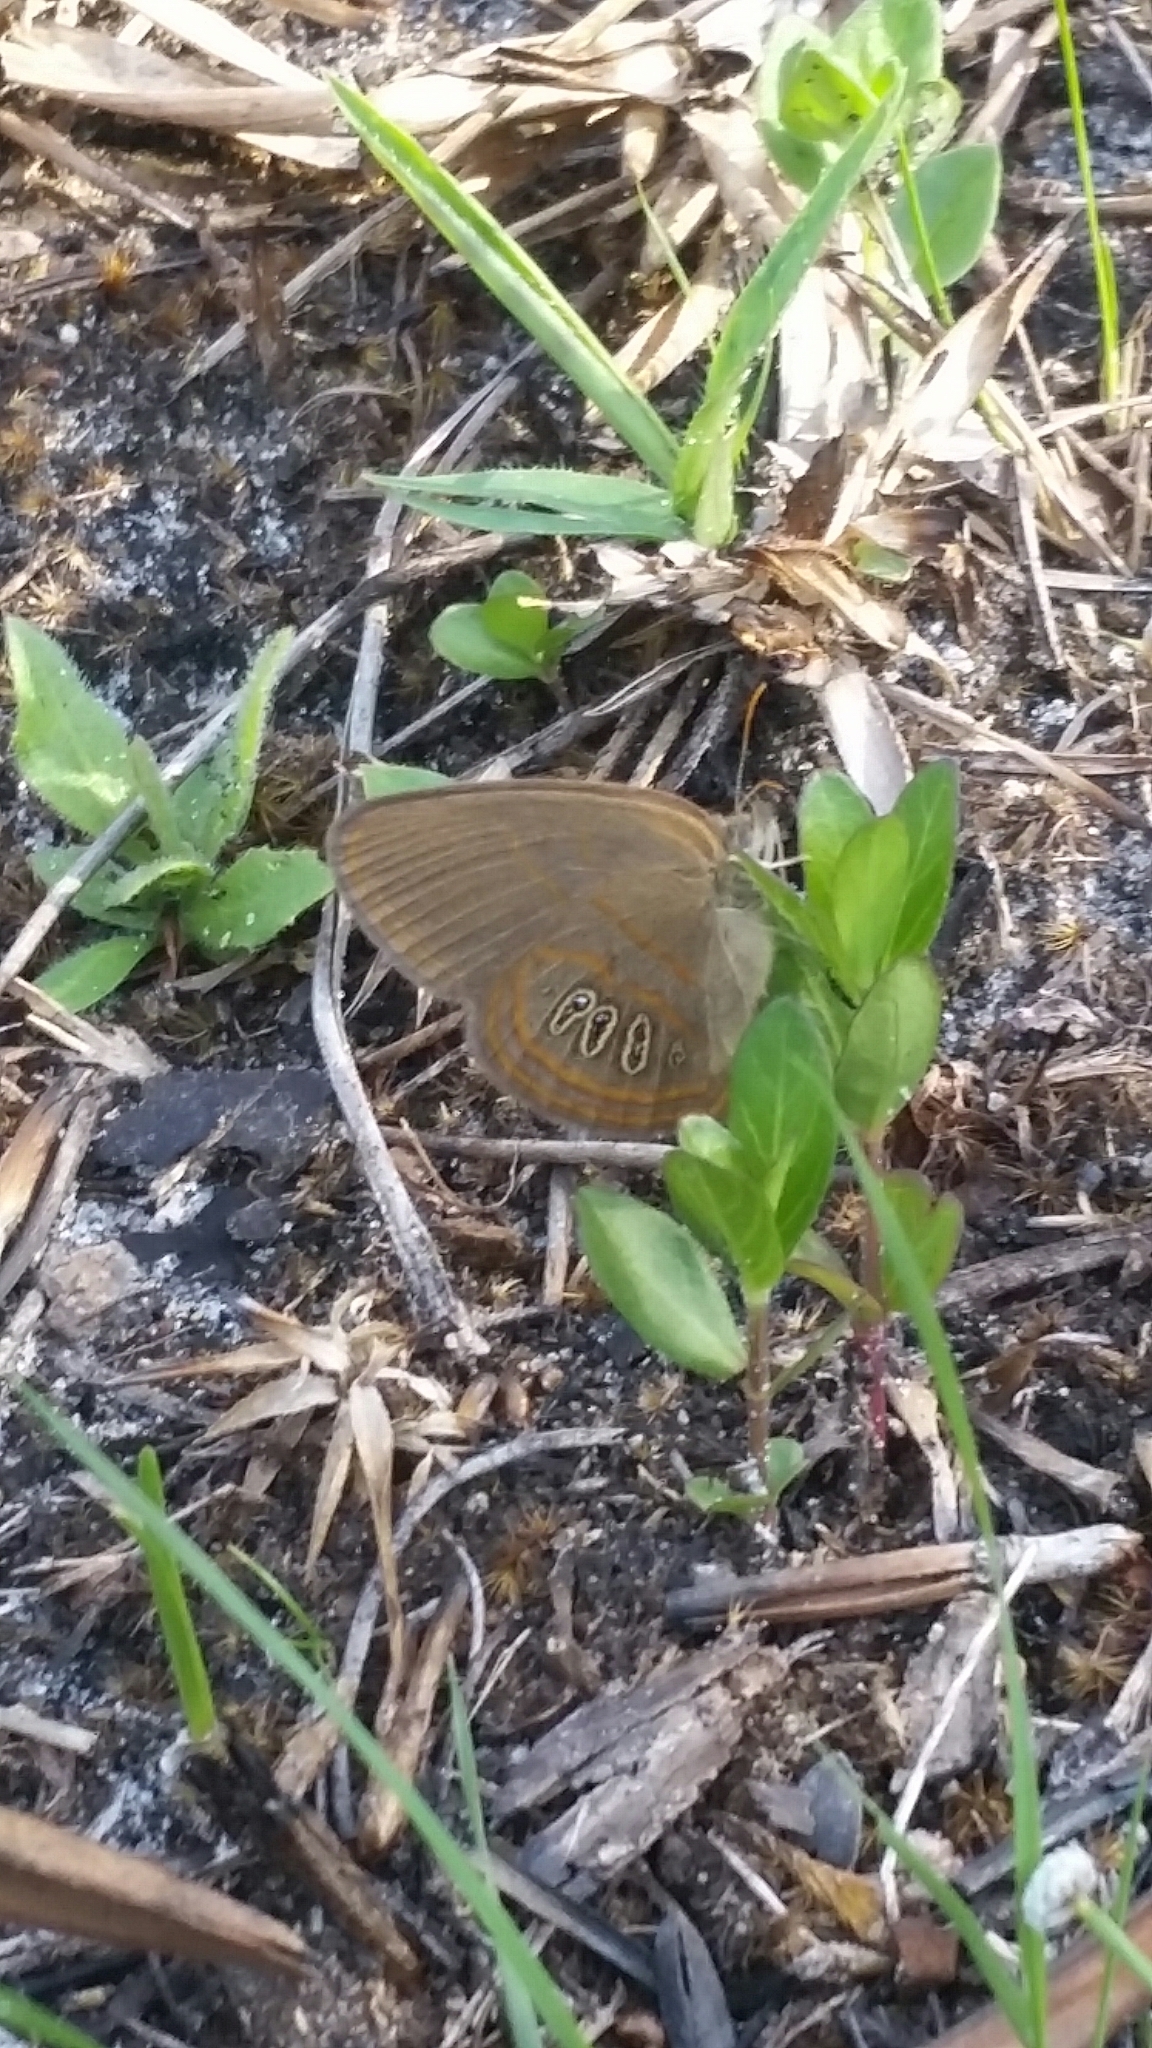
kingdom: Animalia
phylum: Arthropoda
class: Insecta
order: Lepidoptera
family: Nymphalidae
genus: Euptychia
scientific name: Euptychia phocion
